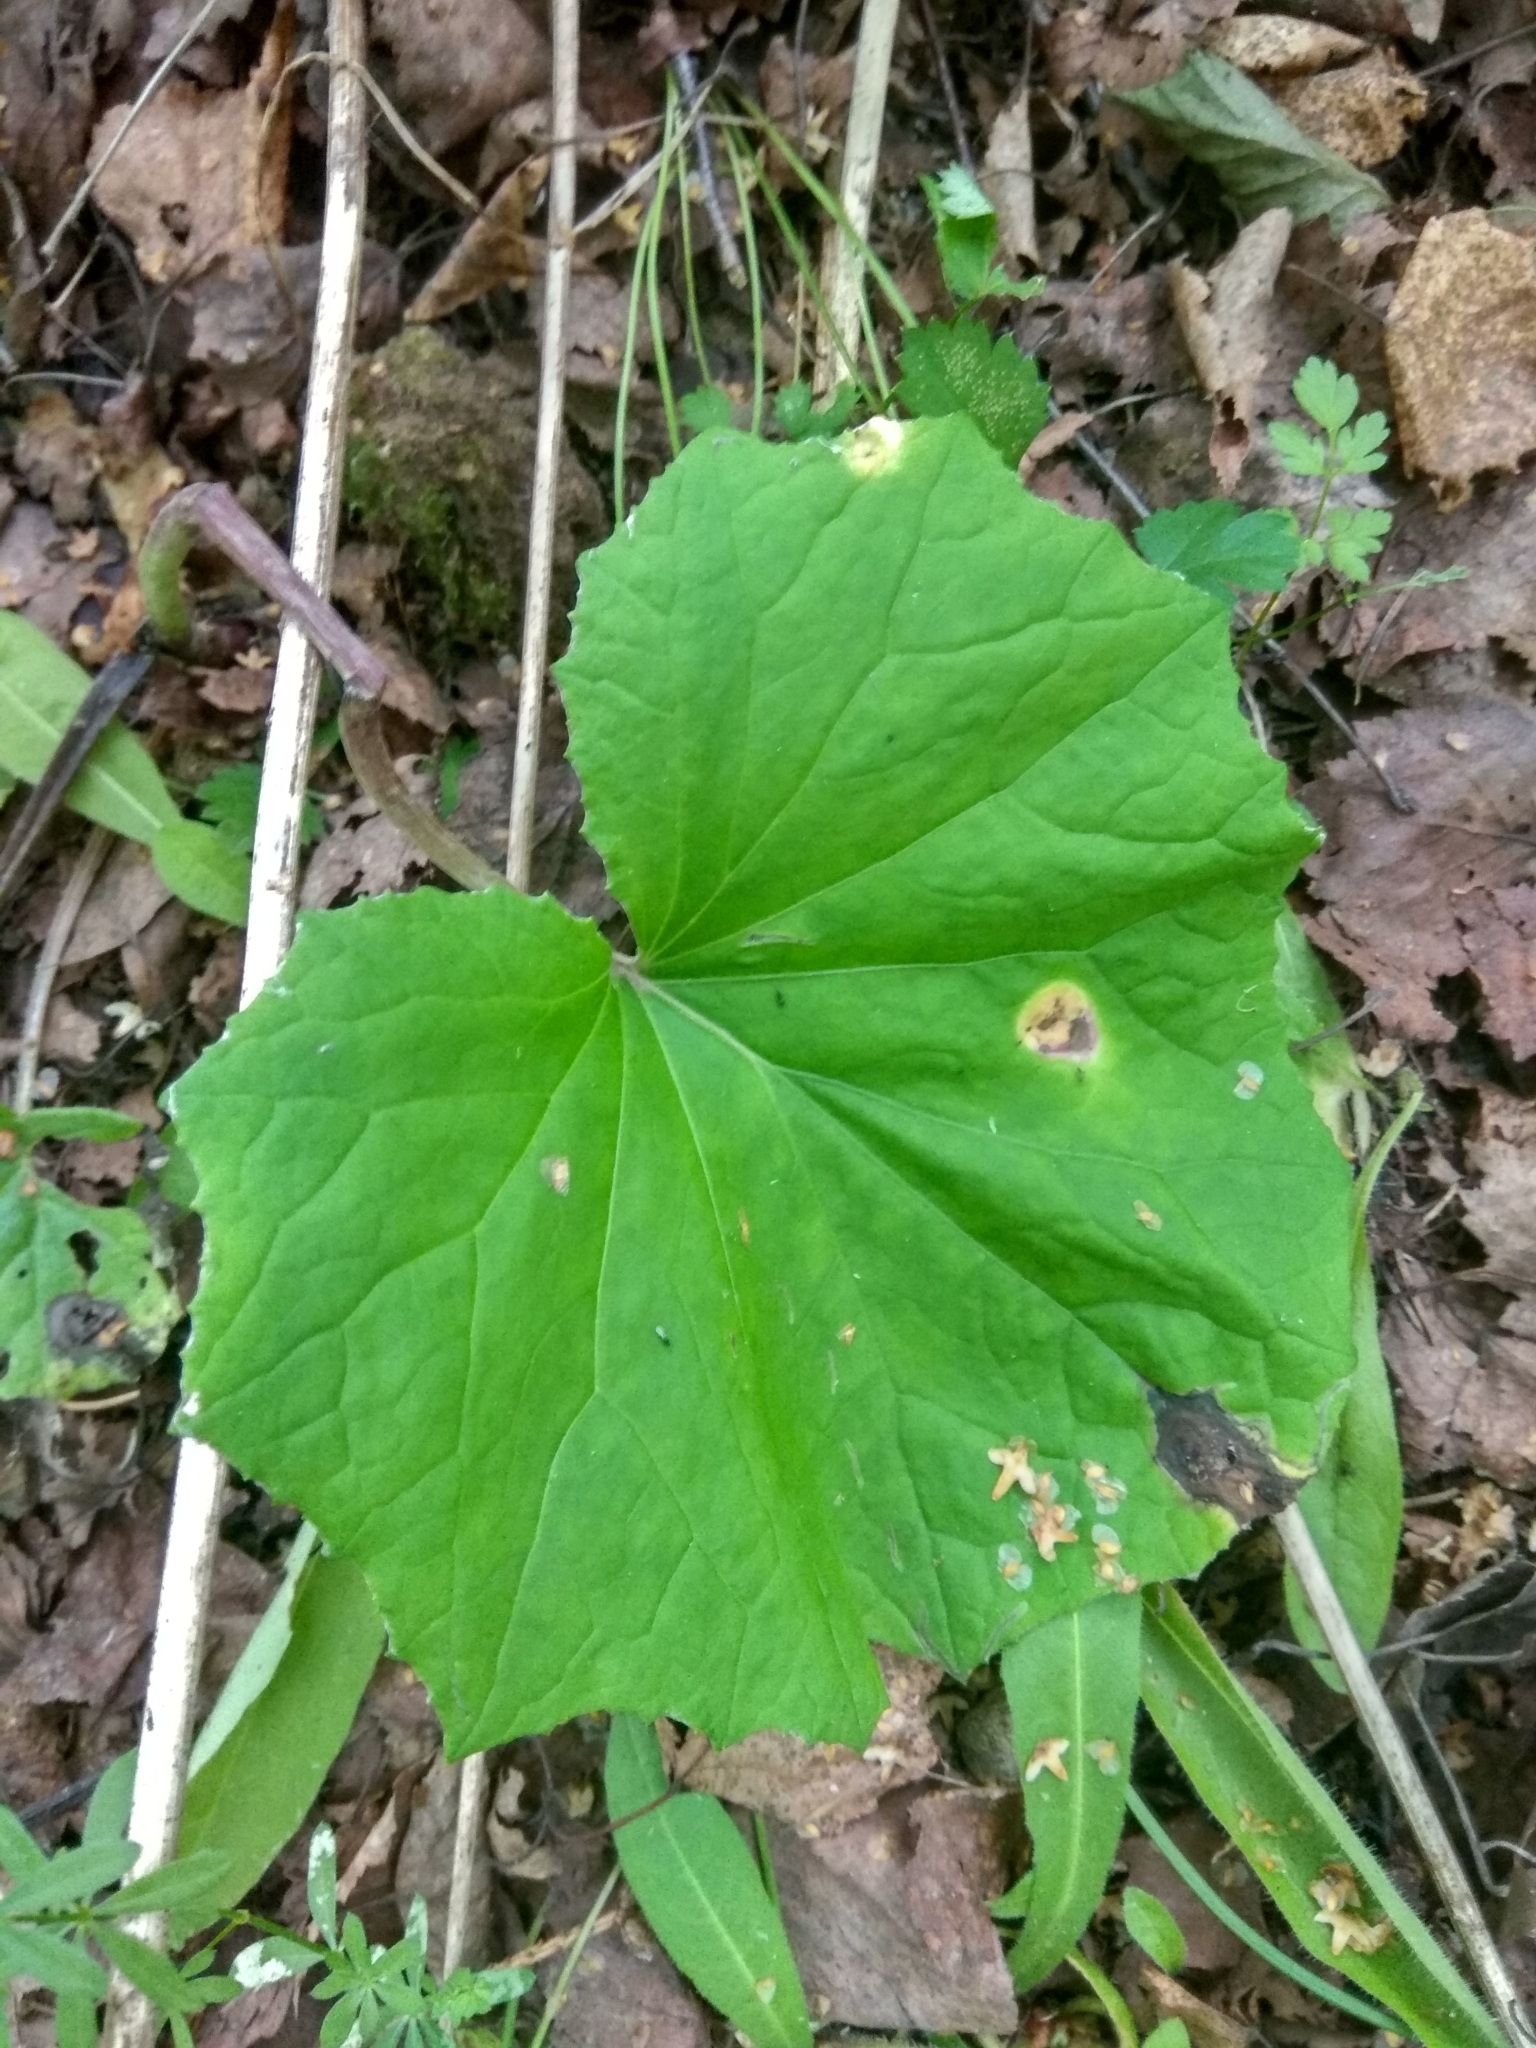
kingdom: Plantae
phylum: Tracheophyta
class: Magnoliopsida
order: Asterales
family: Asteraceae
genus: Tussilago
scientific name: Tussilago farfara
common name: Coltsfoot
